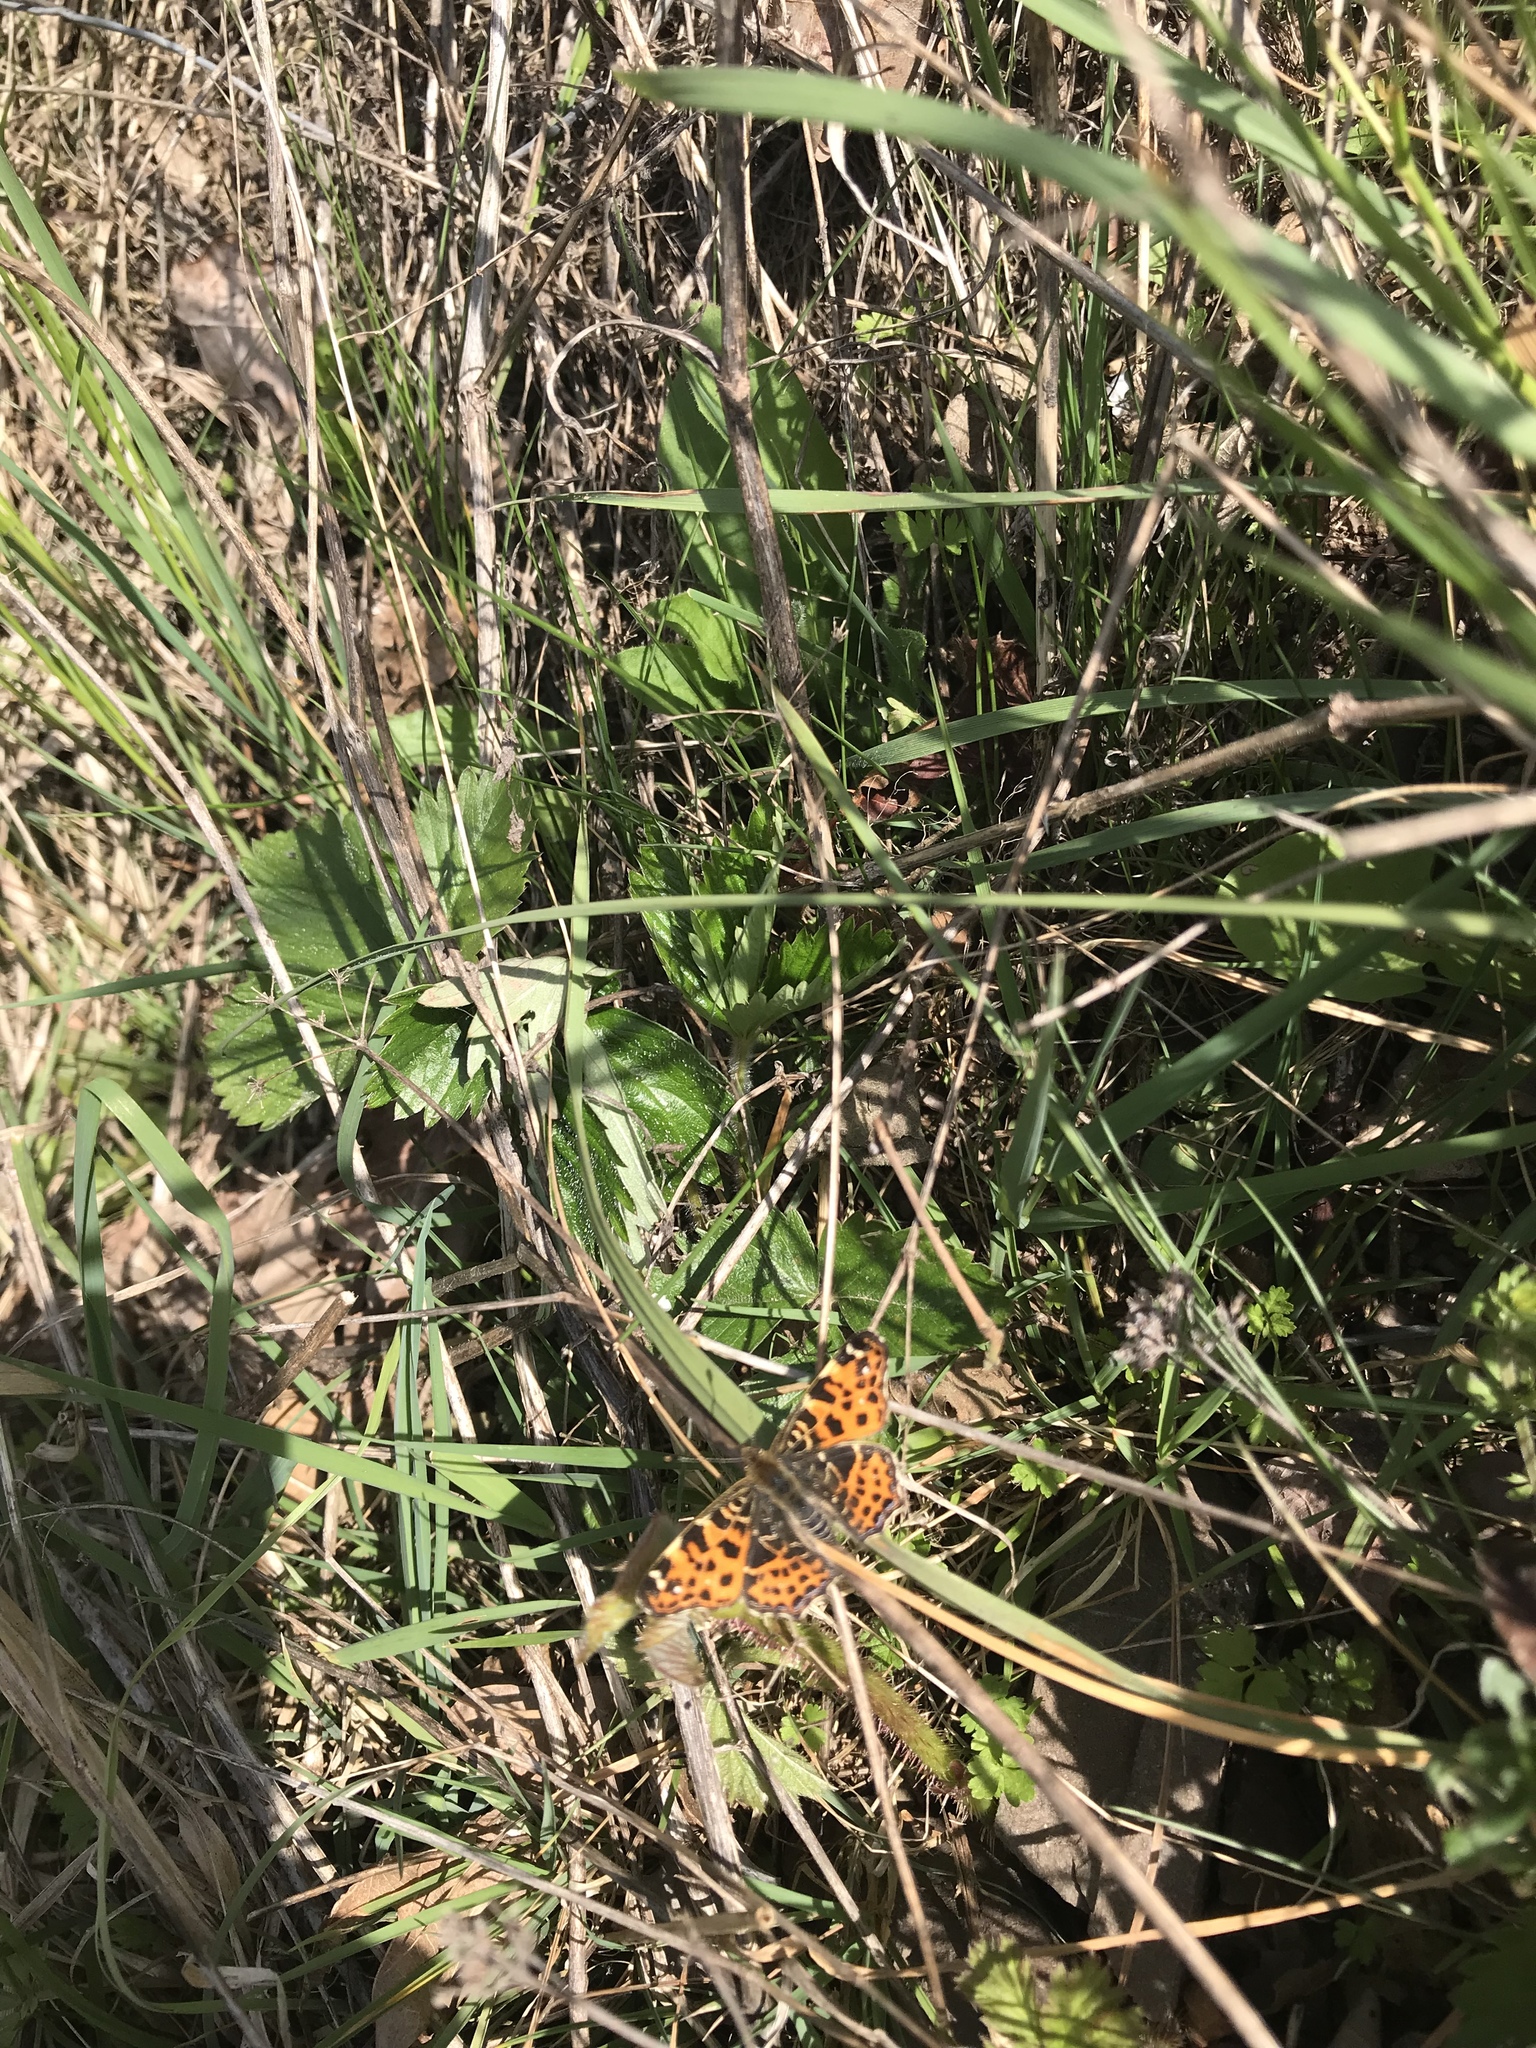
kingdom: Animalia
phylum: Arthropoda
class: Insecta
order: Lepidoptera
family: Nymphalidae
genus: Araschnia
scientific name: Araschnia levana
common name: Map butterfly
